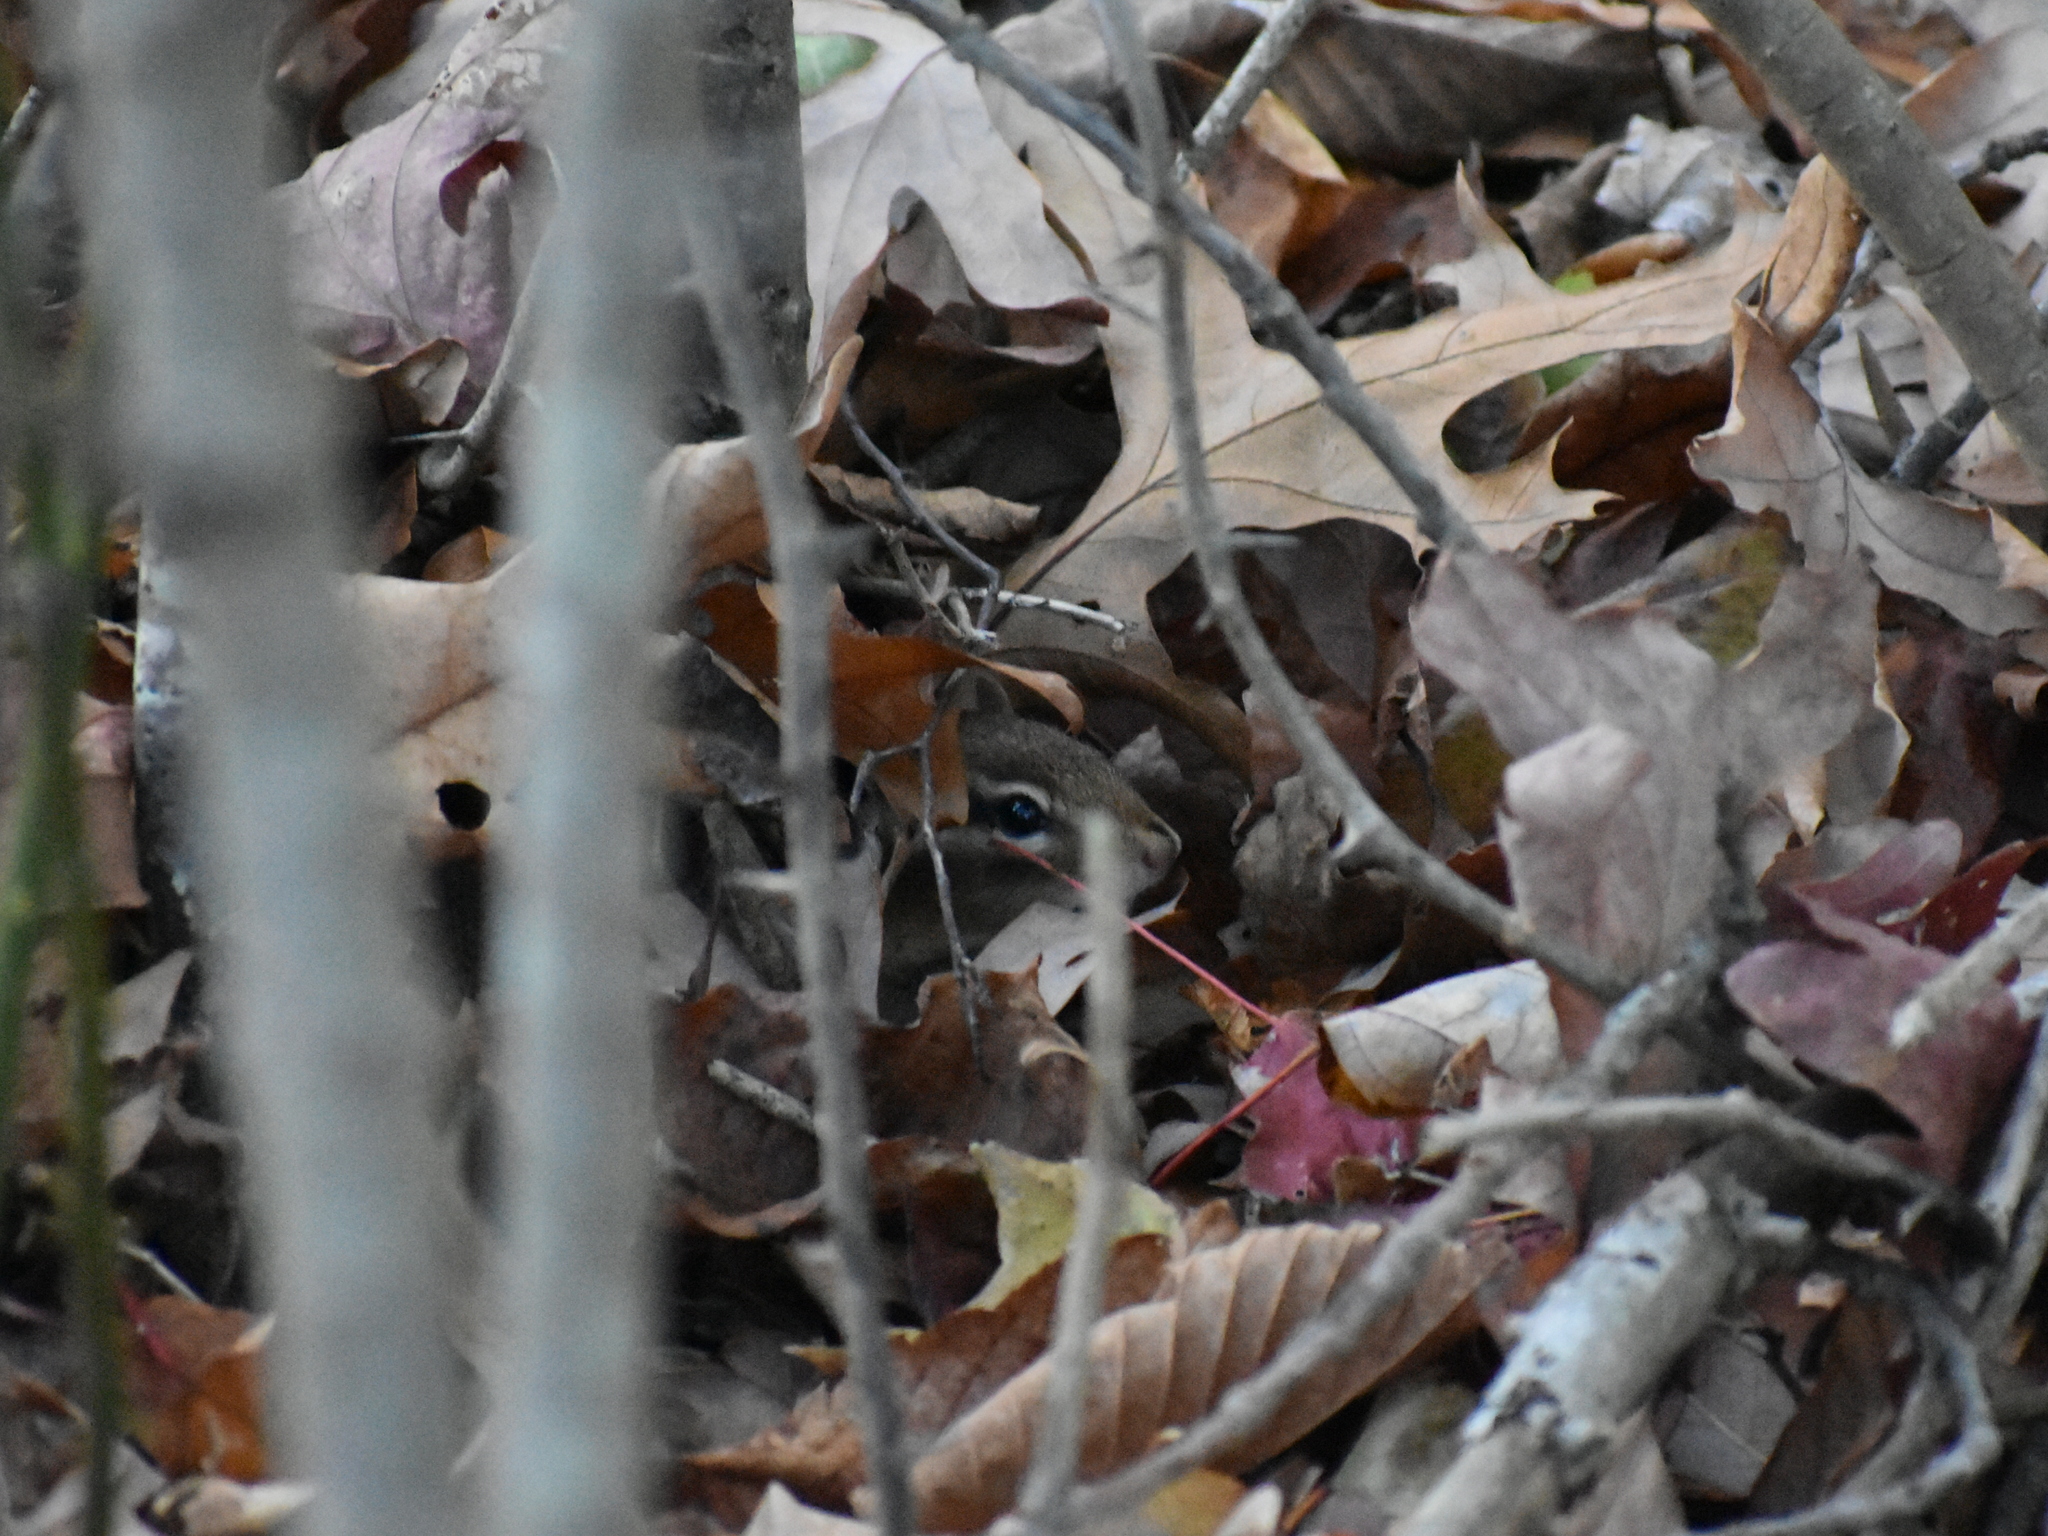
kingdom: Animalia
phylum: Chordata
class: Mammalia
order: Rodentia
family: Sciuridae
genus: Tamias
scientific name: Tamias striatus
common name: Eastern chipmunk
